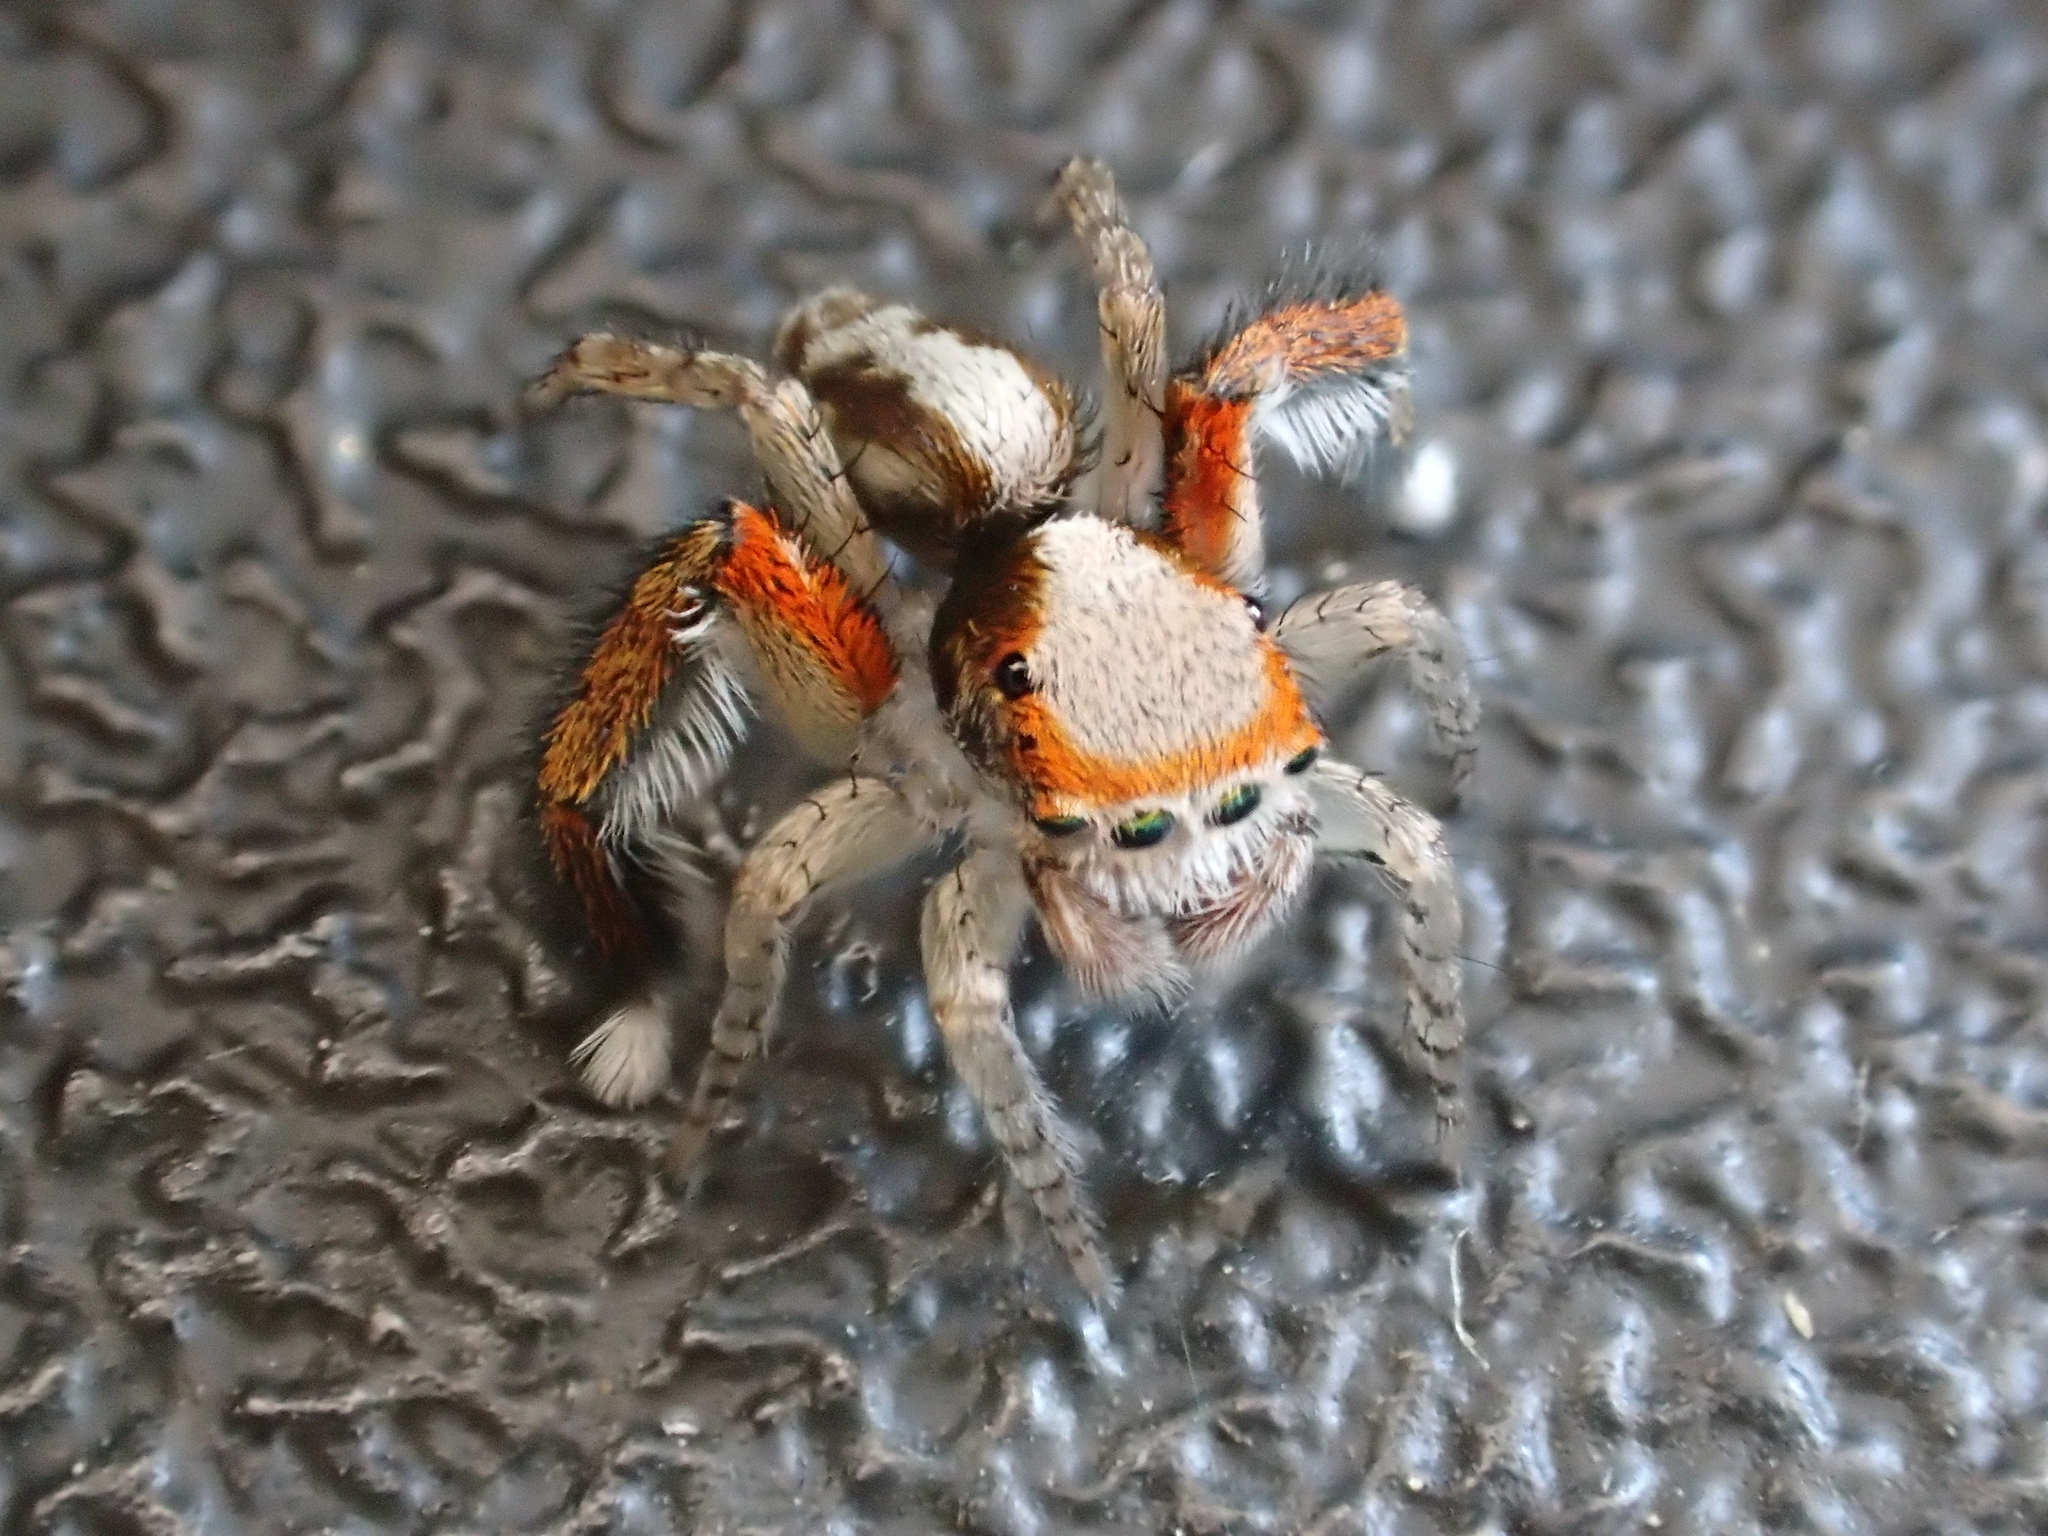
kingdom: Animalia
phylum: Arthropoda
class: Arachnida
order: Araneae
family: Salticidae
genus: Saitis
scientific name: Saitis barbipes
